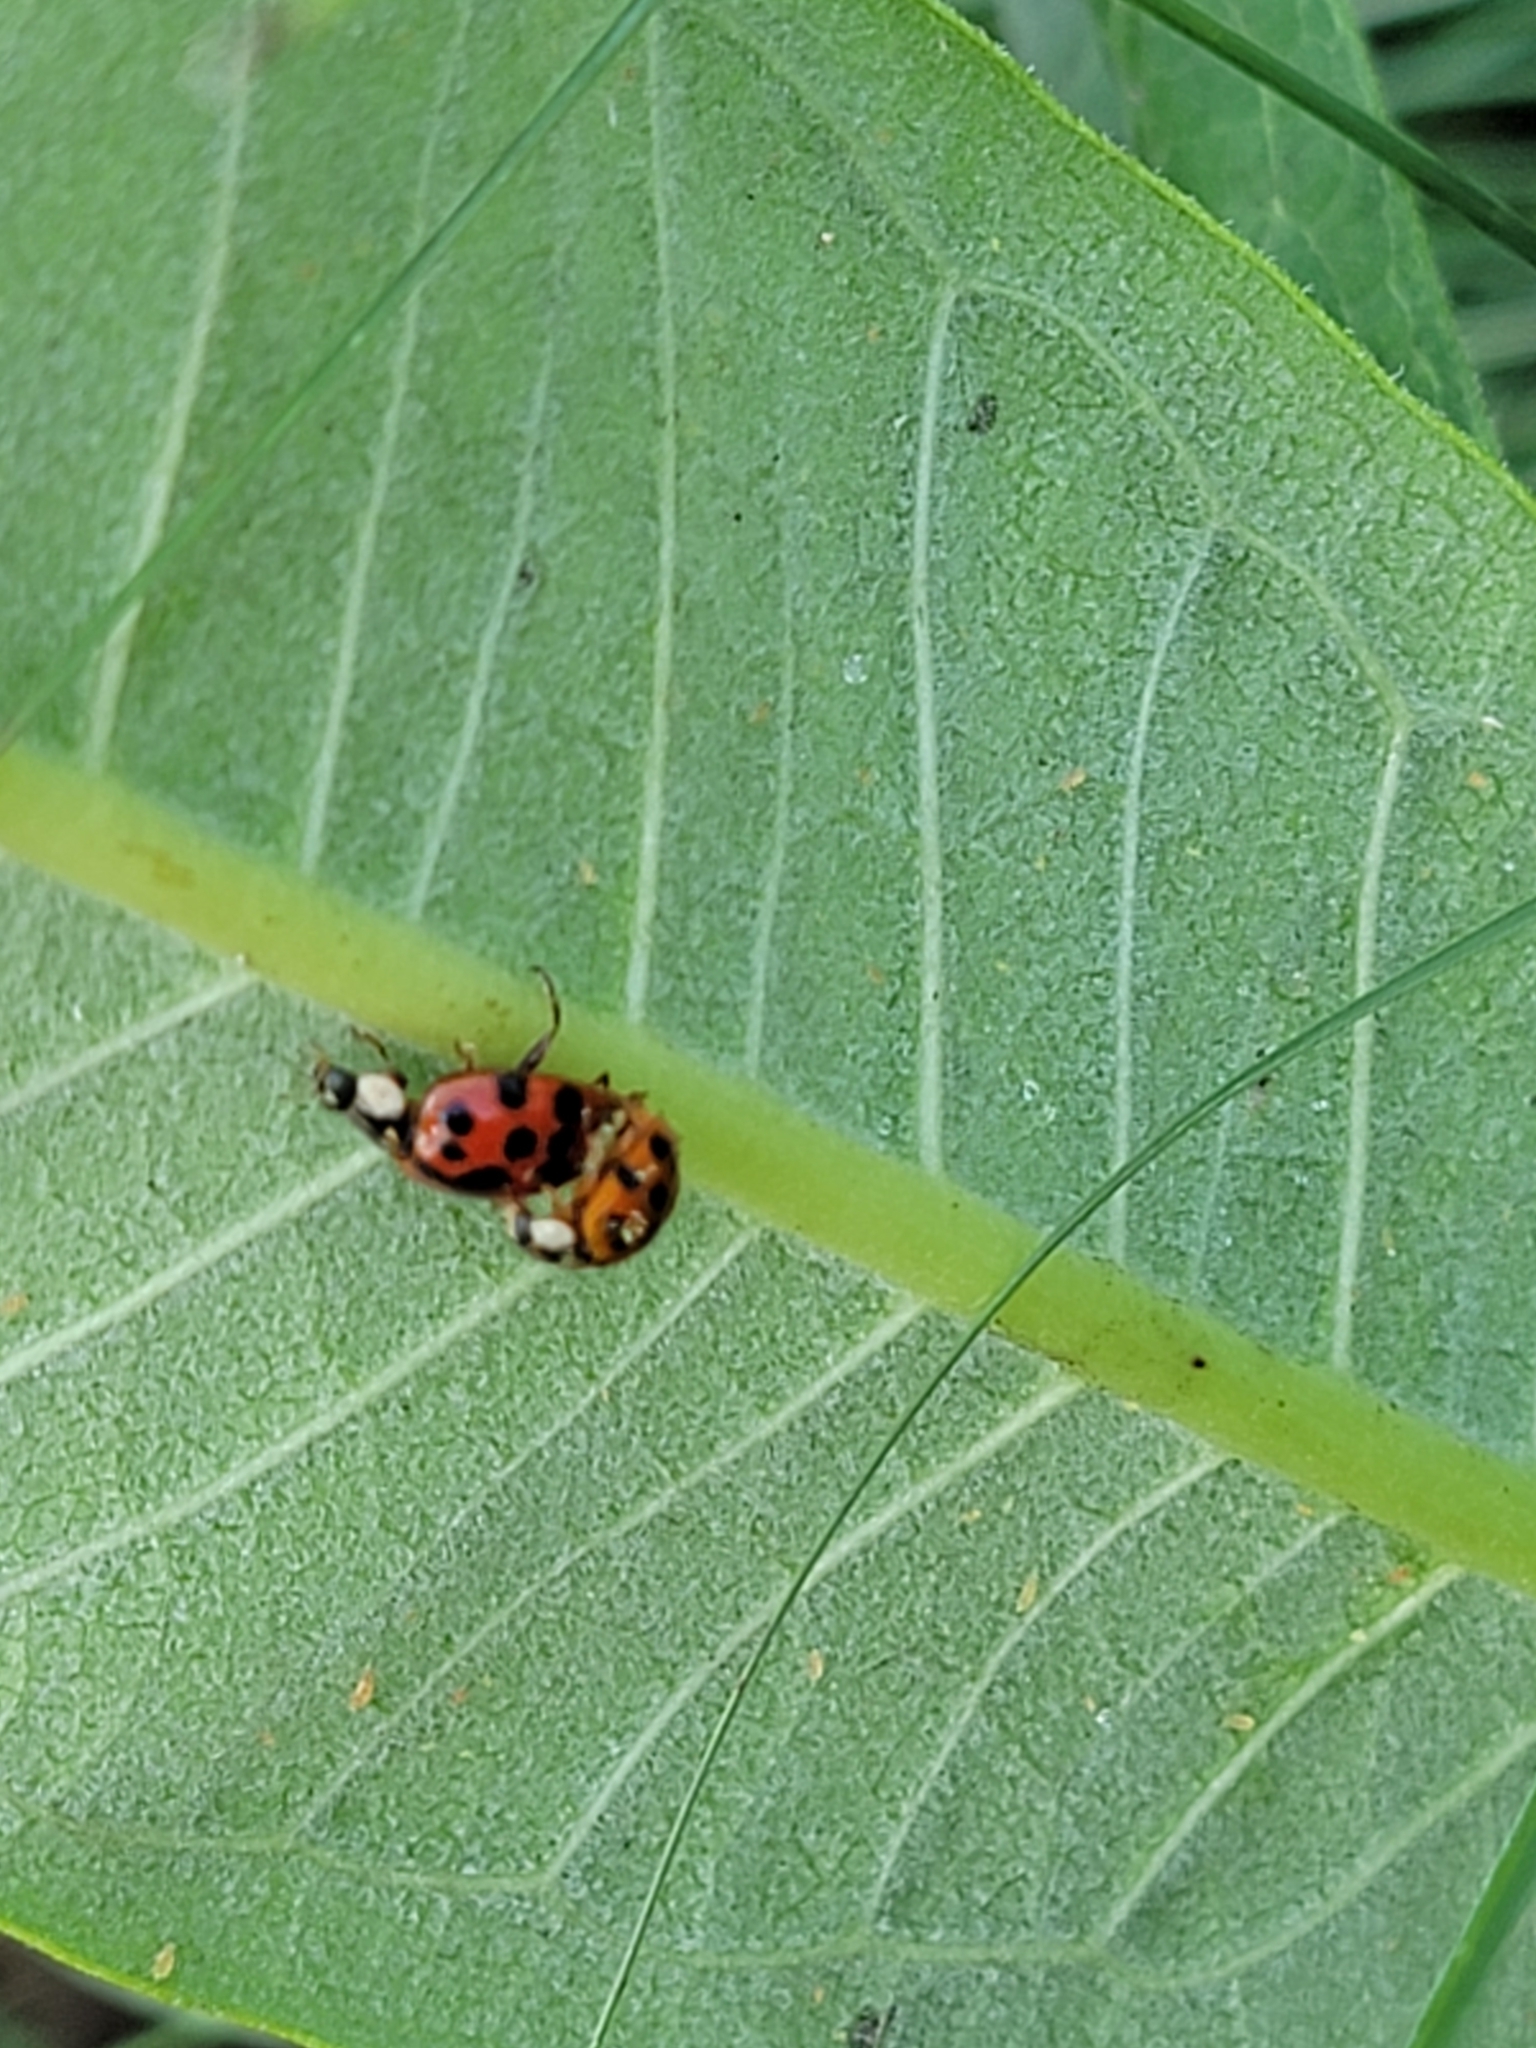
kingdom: Animalia
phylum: Arthropoda
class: Insecta
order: Coleoptera
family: Coccinellidae
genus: Harmonia
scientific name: Harmonia axyridis
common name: Harlequin ladybird
